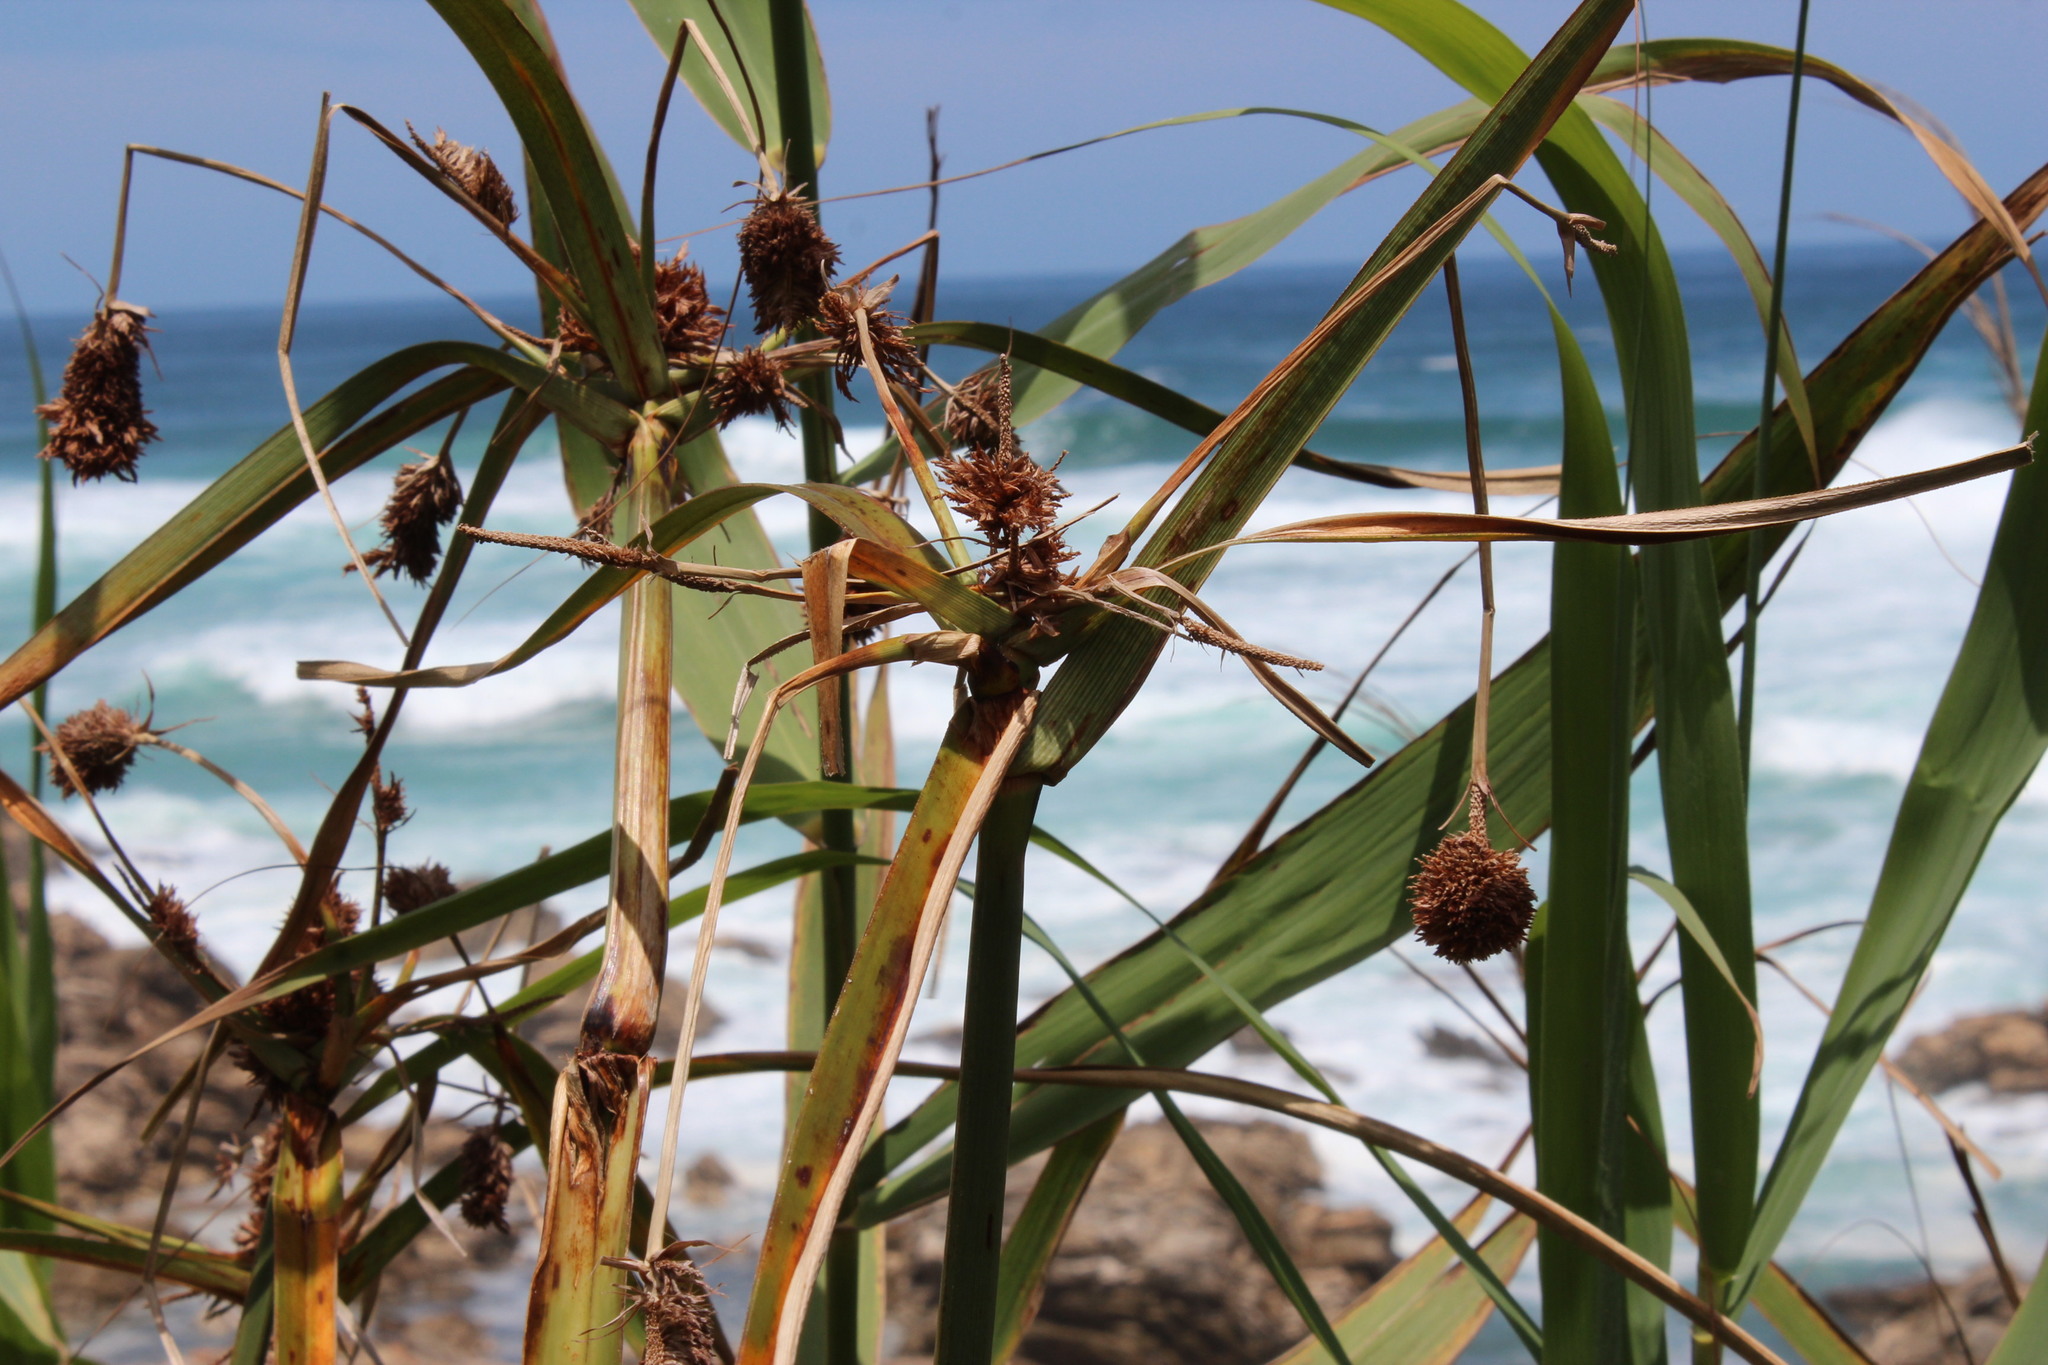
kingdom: Plantae
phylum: Tracheophyta
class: Liliopsida
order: Poales
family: Cyperaceae
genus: Cyperus
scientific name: Cyperus thunbergii
